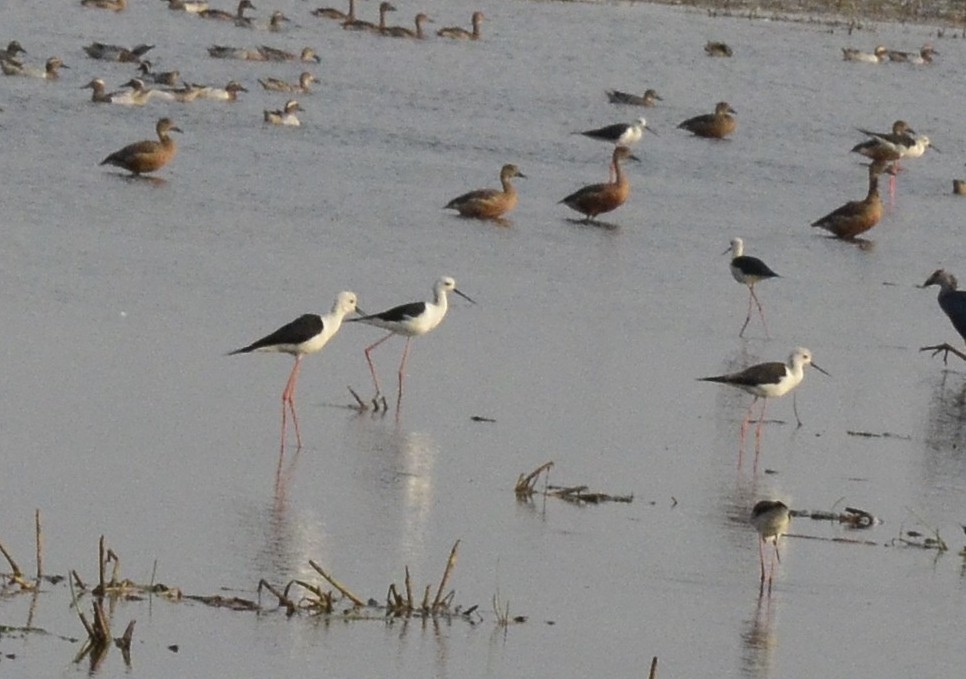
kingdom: Animalia
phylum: Chordata
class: Aves
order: Charadriiformes
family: Recurvirostridae
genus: Himantopus
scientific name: Himantopus himantopus
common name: Black-winged stilt
